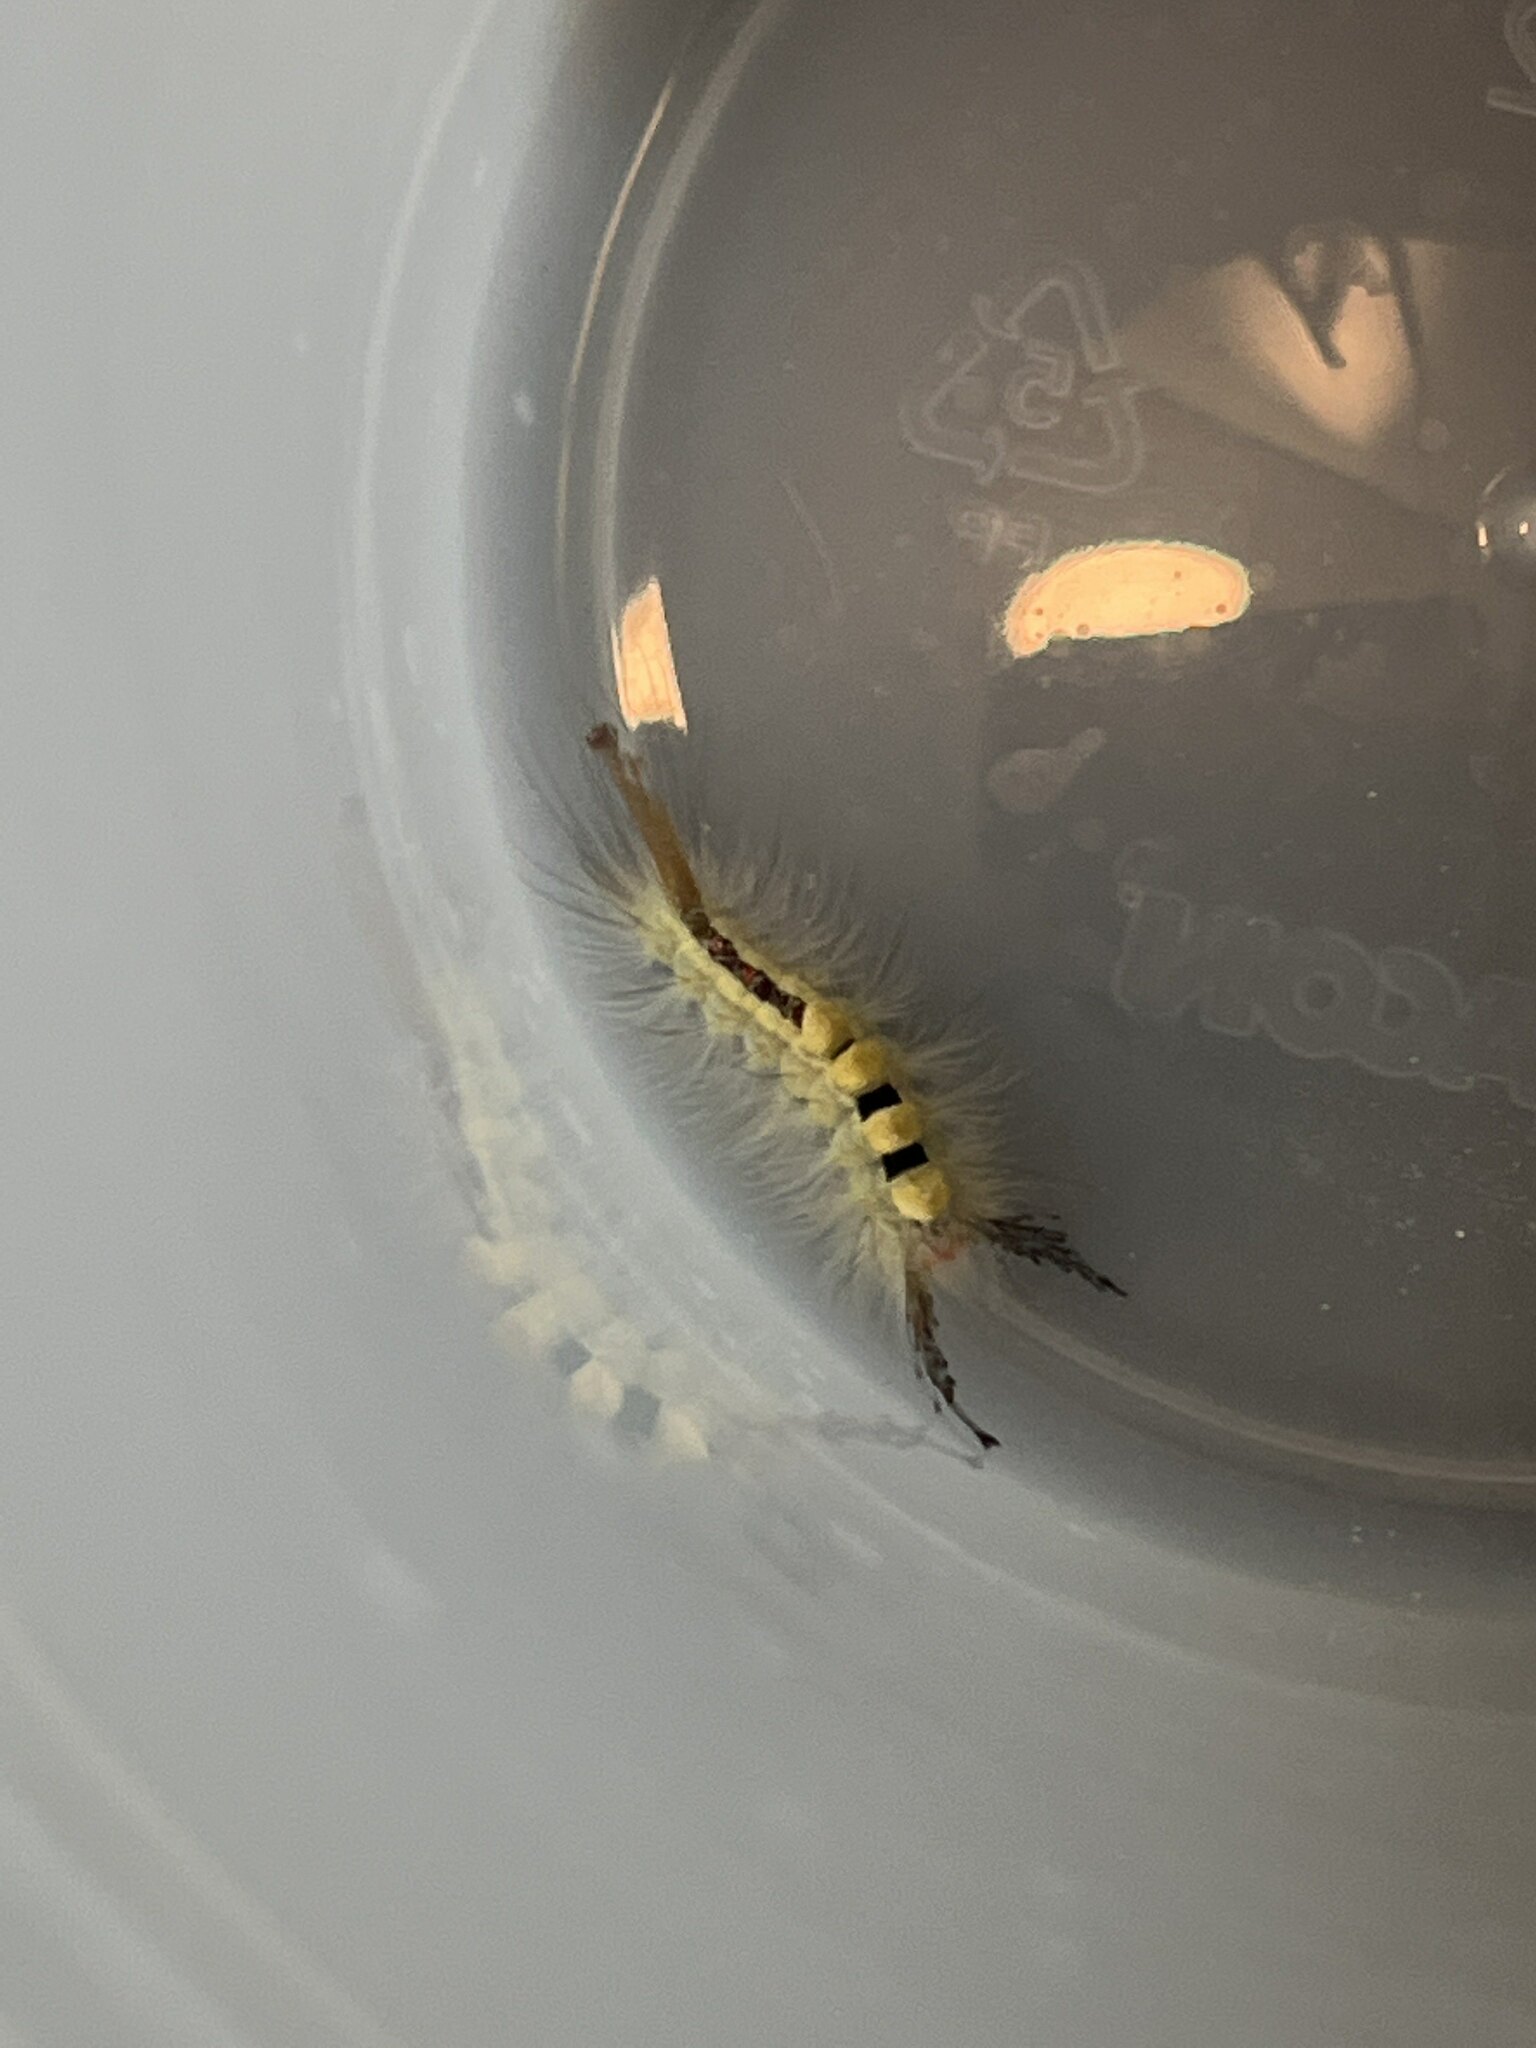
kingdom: Animalia
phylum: Arthropoda
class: Insecta
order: Lepidoptera
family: Erebidae
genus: Orgyia
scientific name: Orgyia leucostigma
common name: White-marked tussock moth
